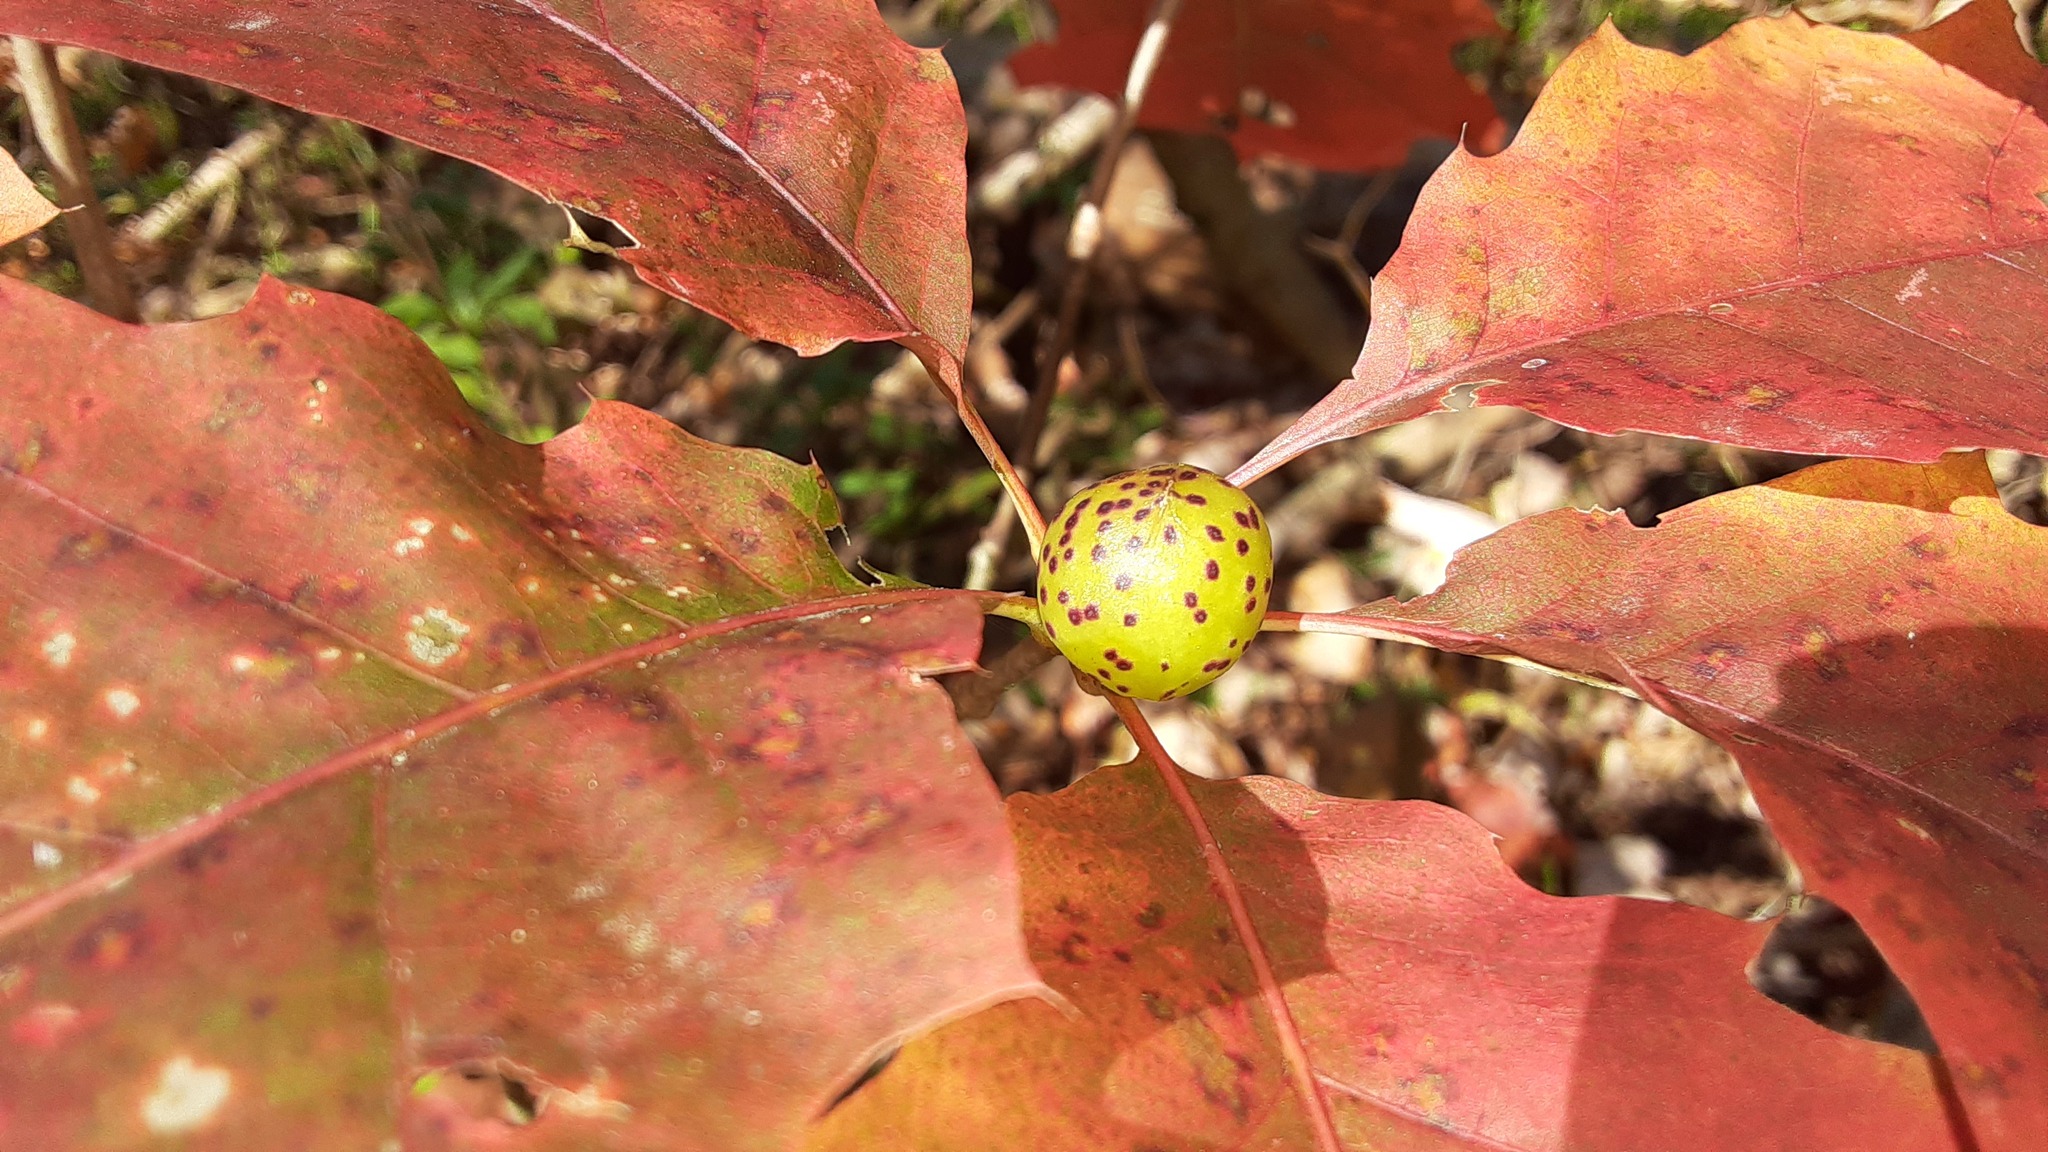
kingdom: Animalia
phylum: Arthropoda
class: Insecta
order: Hymenoptera
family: Cynipidae
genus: Amphibolips
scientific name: Amphibolips
